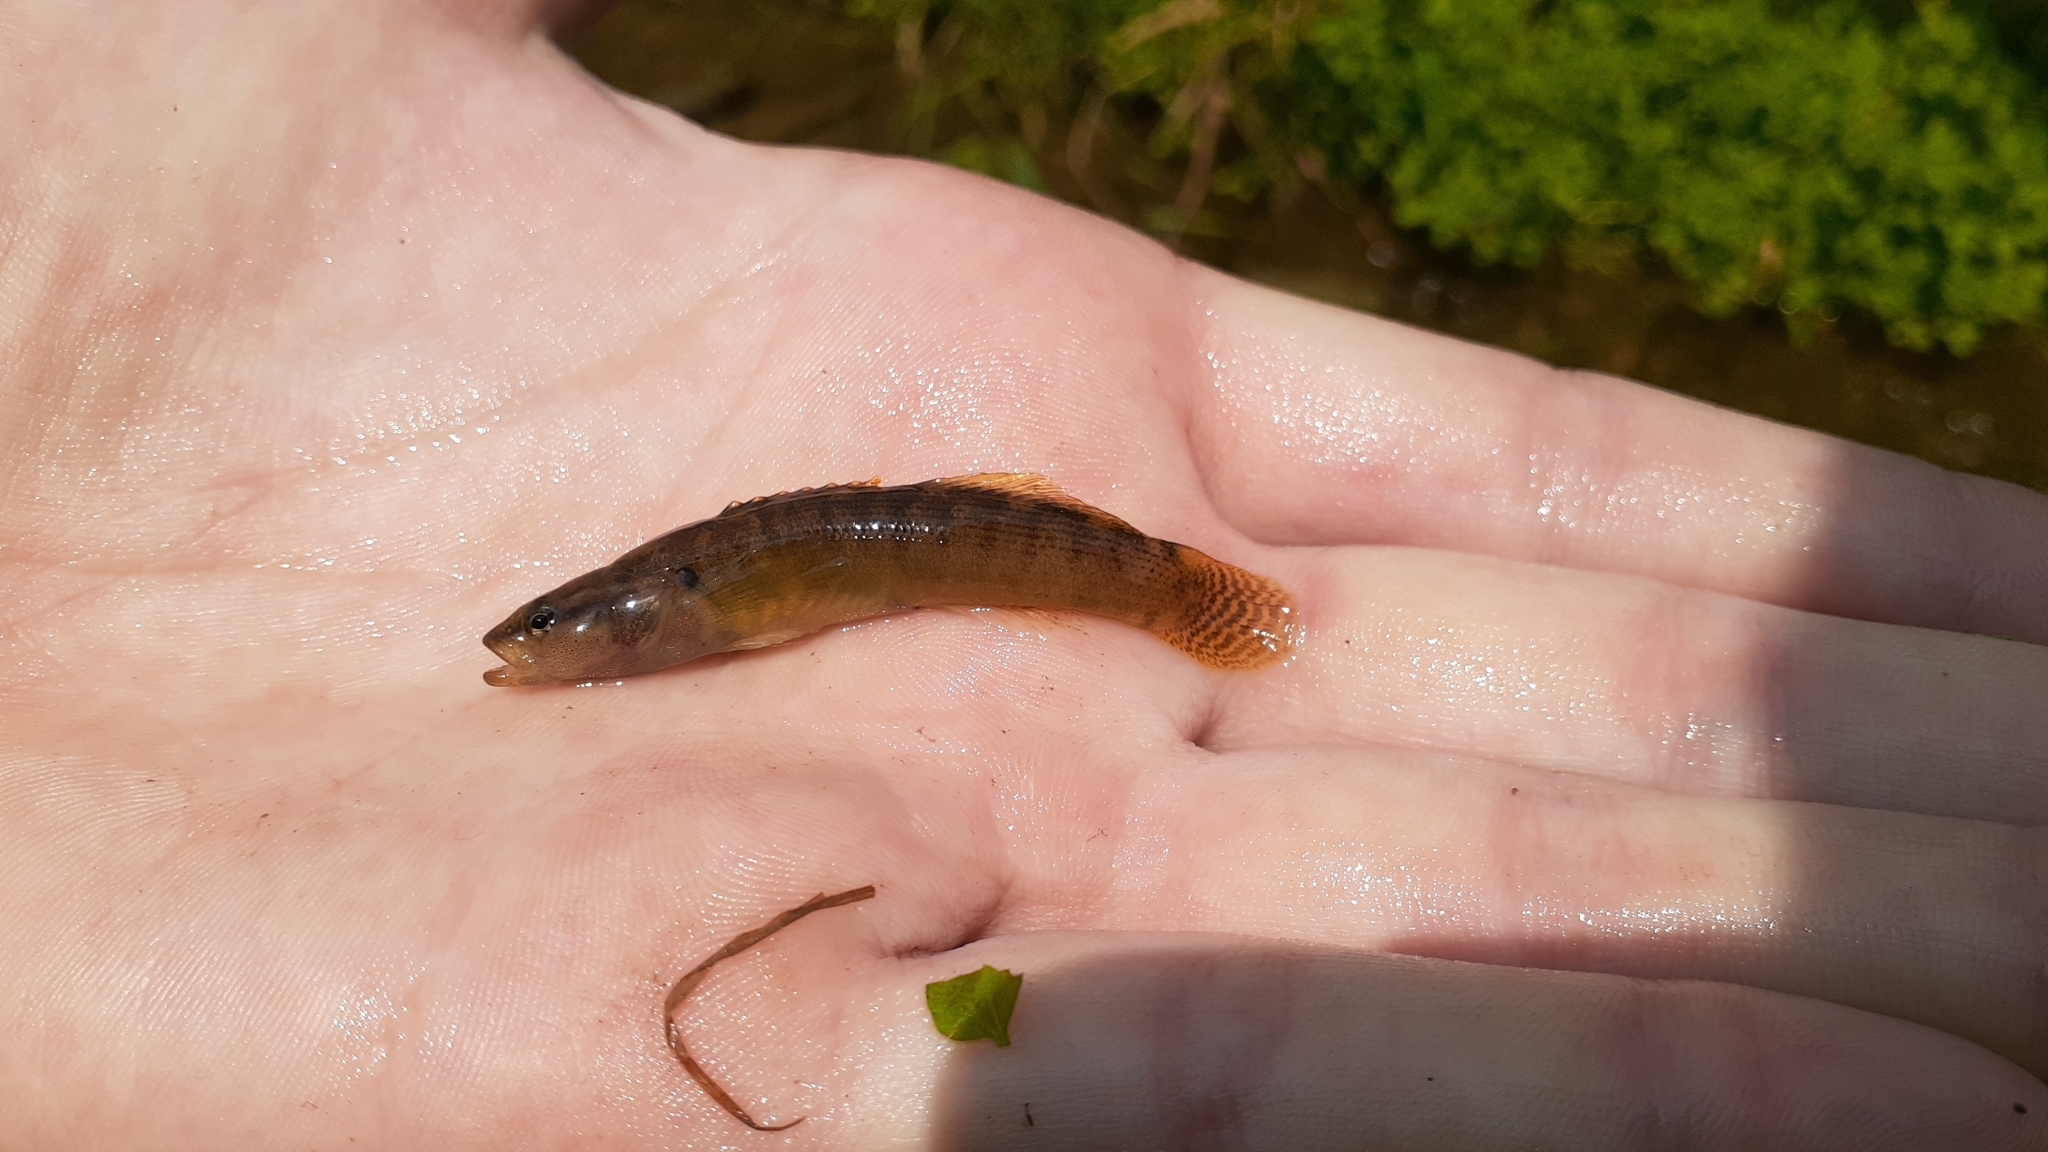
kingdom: Animalia
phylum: Chordata
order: Perciformes
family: Percidae
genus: Etheostoma
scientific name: Etheostoma flabellare
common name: Fantail darter
